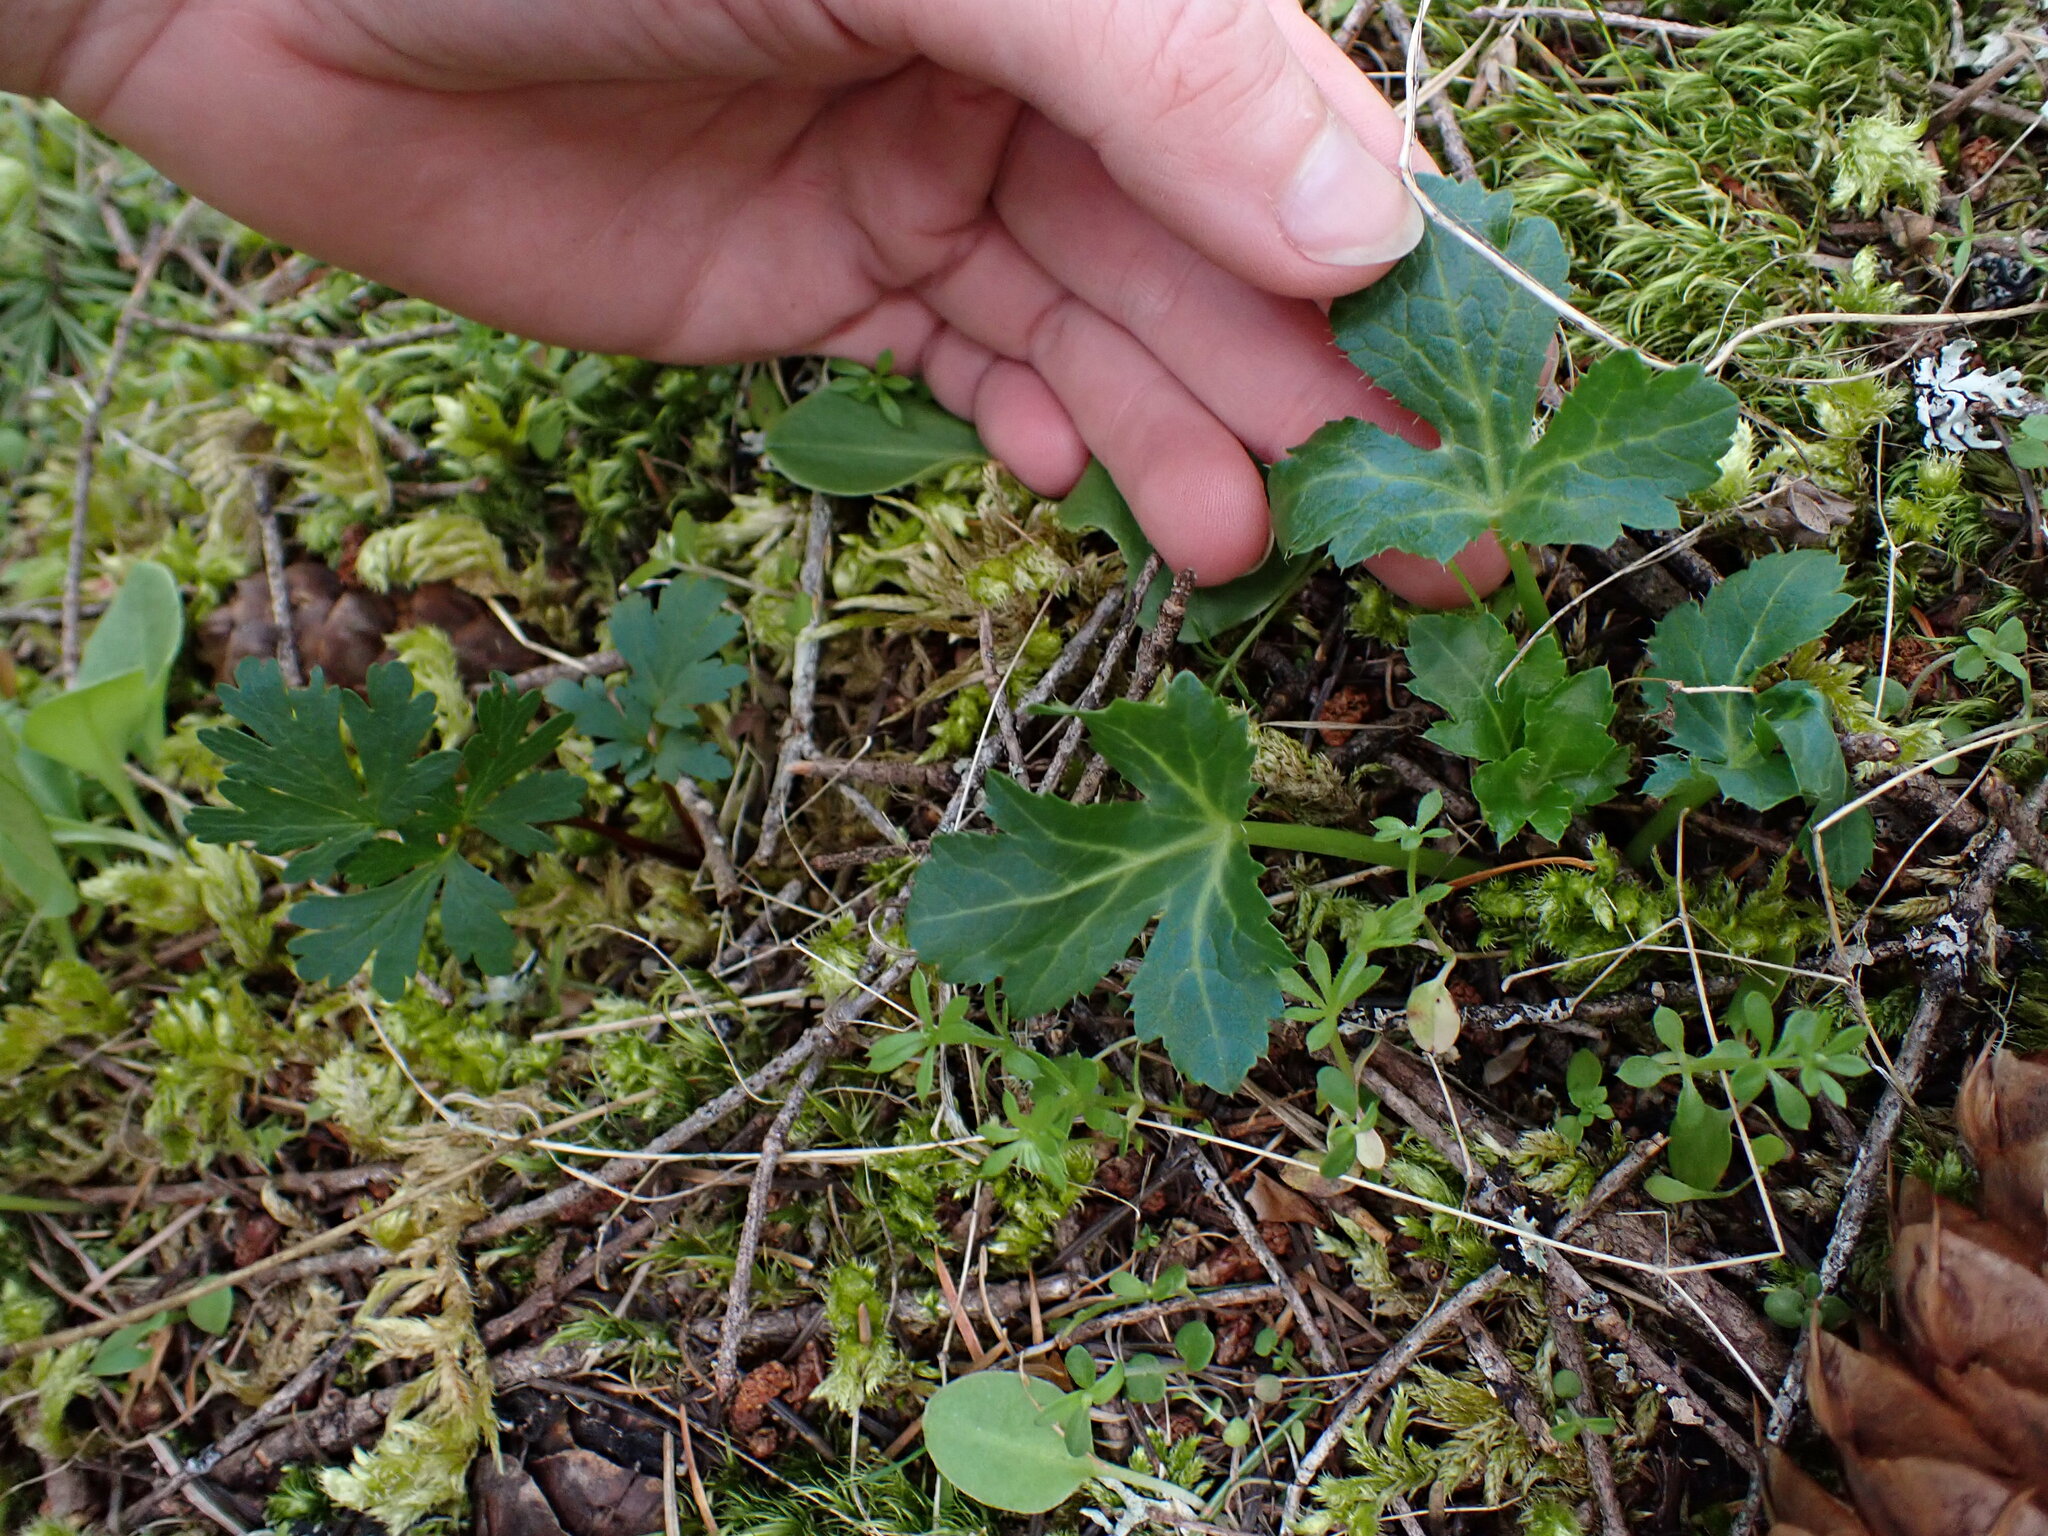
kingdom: Plantae
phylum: Tracheophyta
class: Magnoliopsida
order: Apiales
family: Apiaceae
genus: Sanicula
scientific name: Sanicula crassicaulis
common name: Western snakeroot
